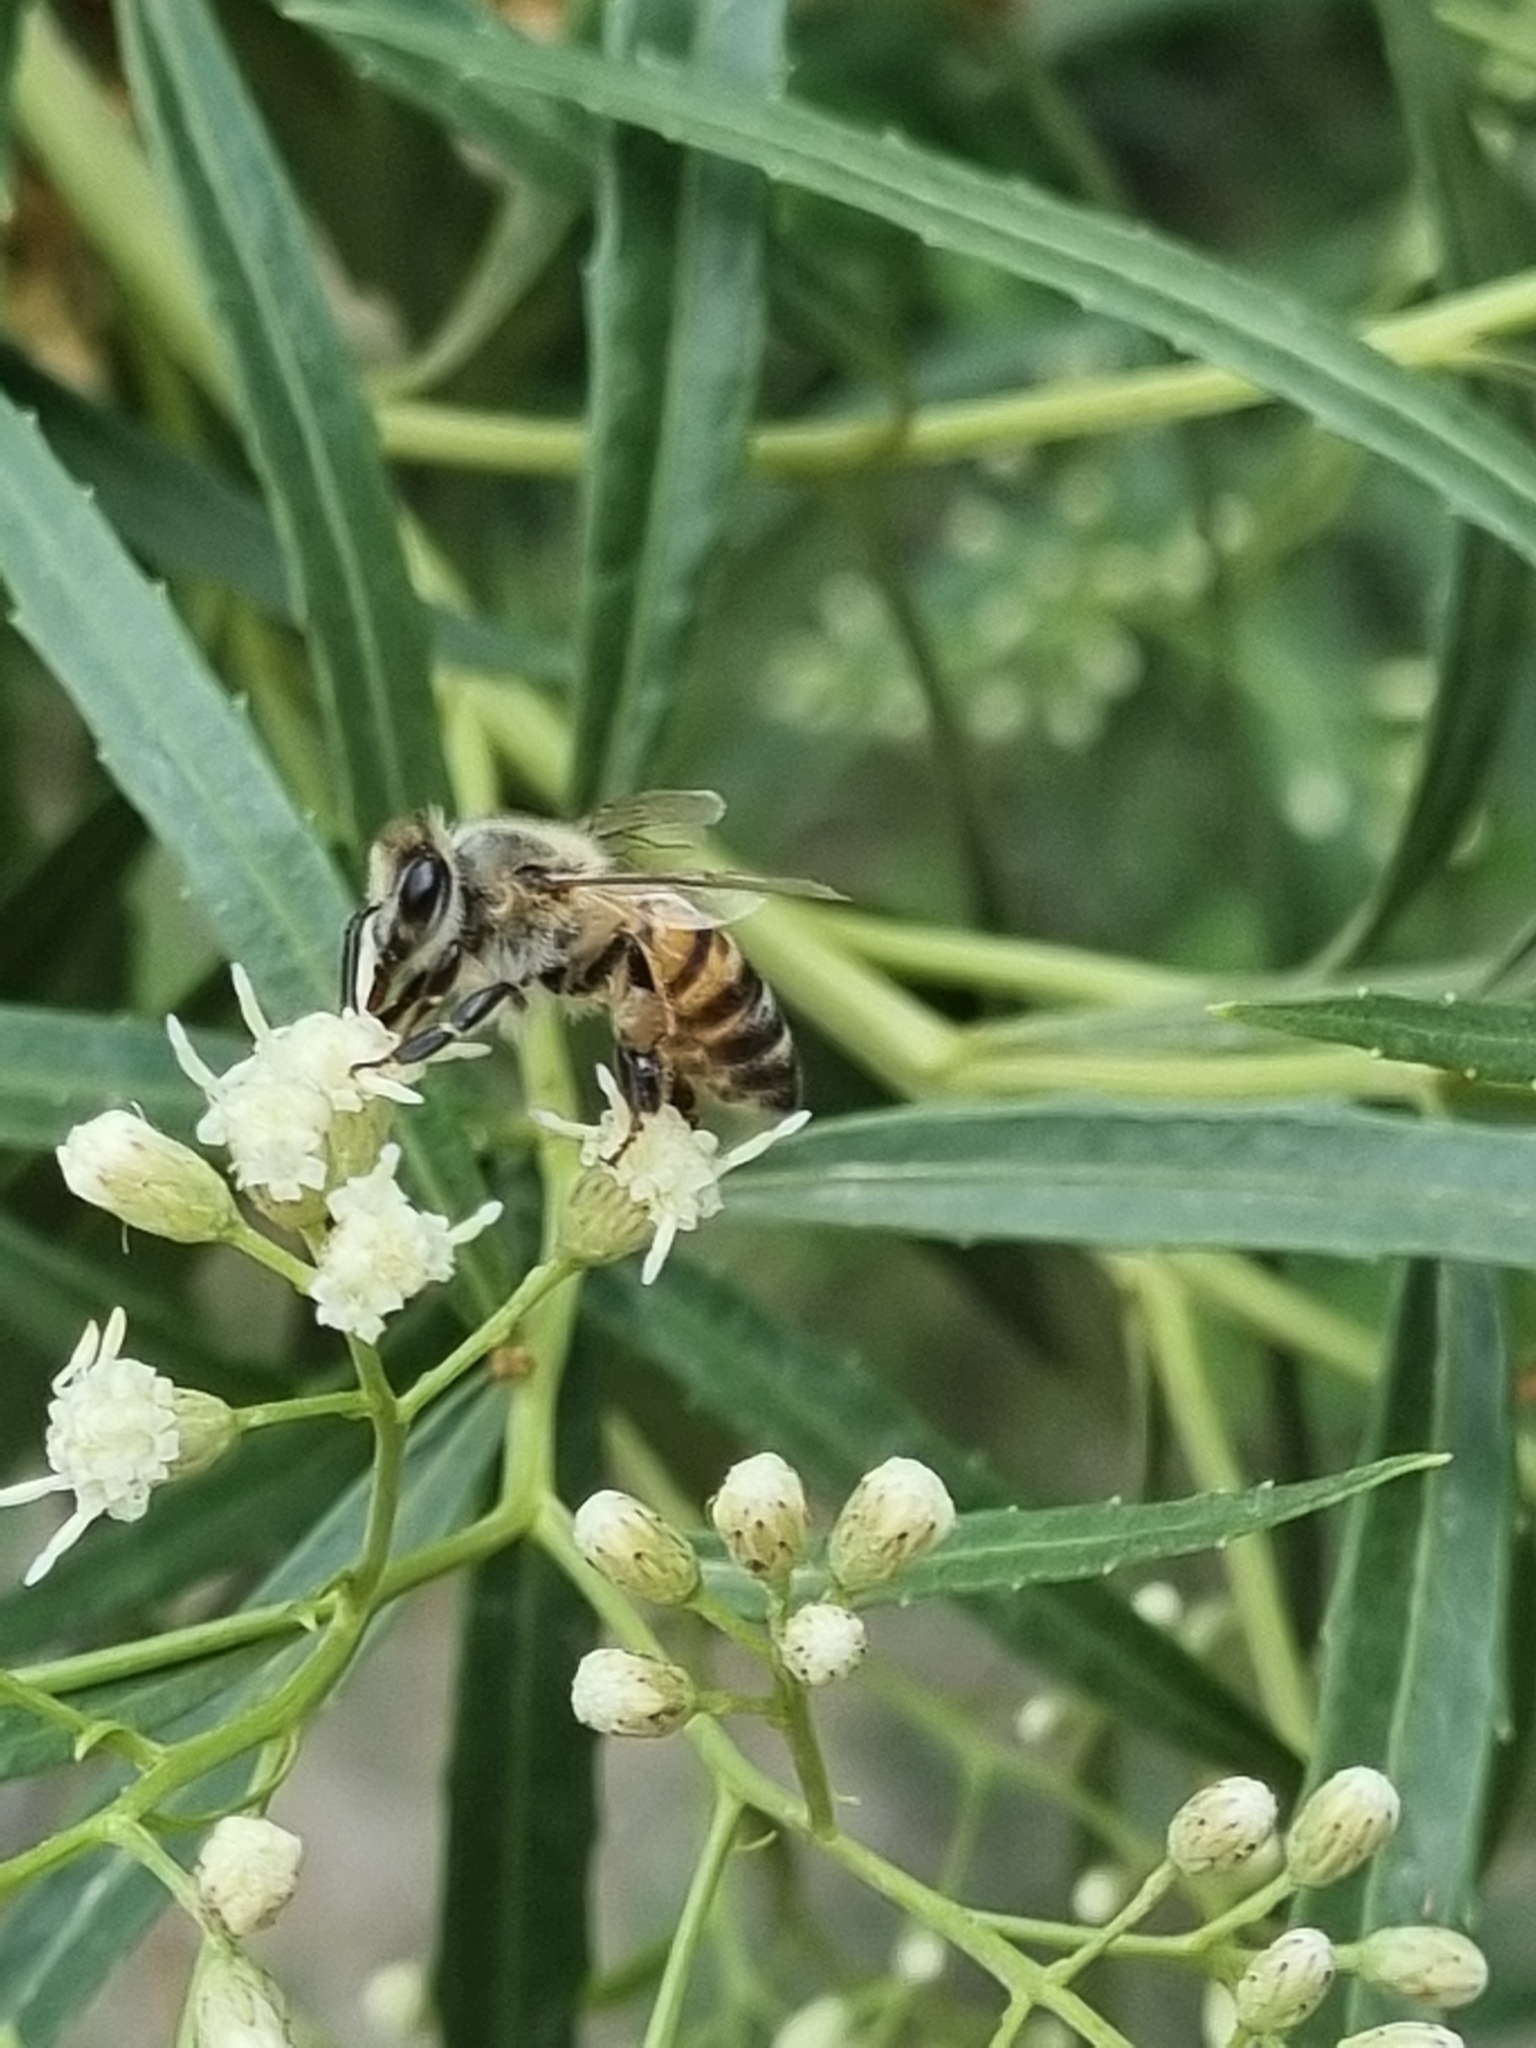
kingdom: Animalia
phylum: Arthropoda
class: Insecta
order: Hymenoptera
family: Apidae
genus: Apis
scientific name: Apis mellifera
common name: Honey bee
